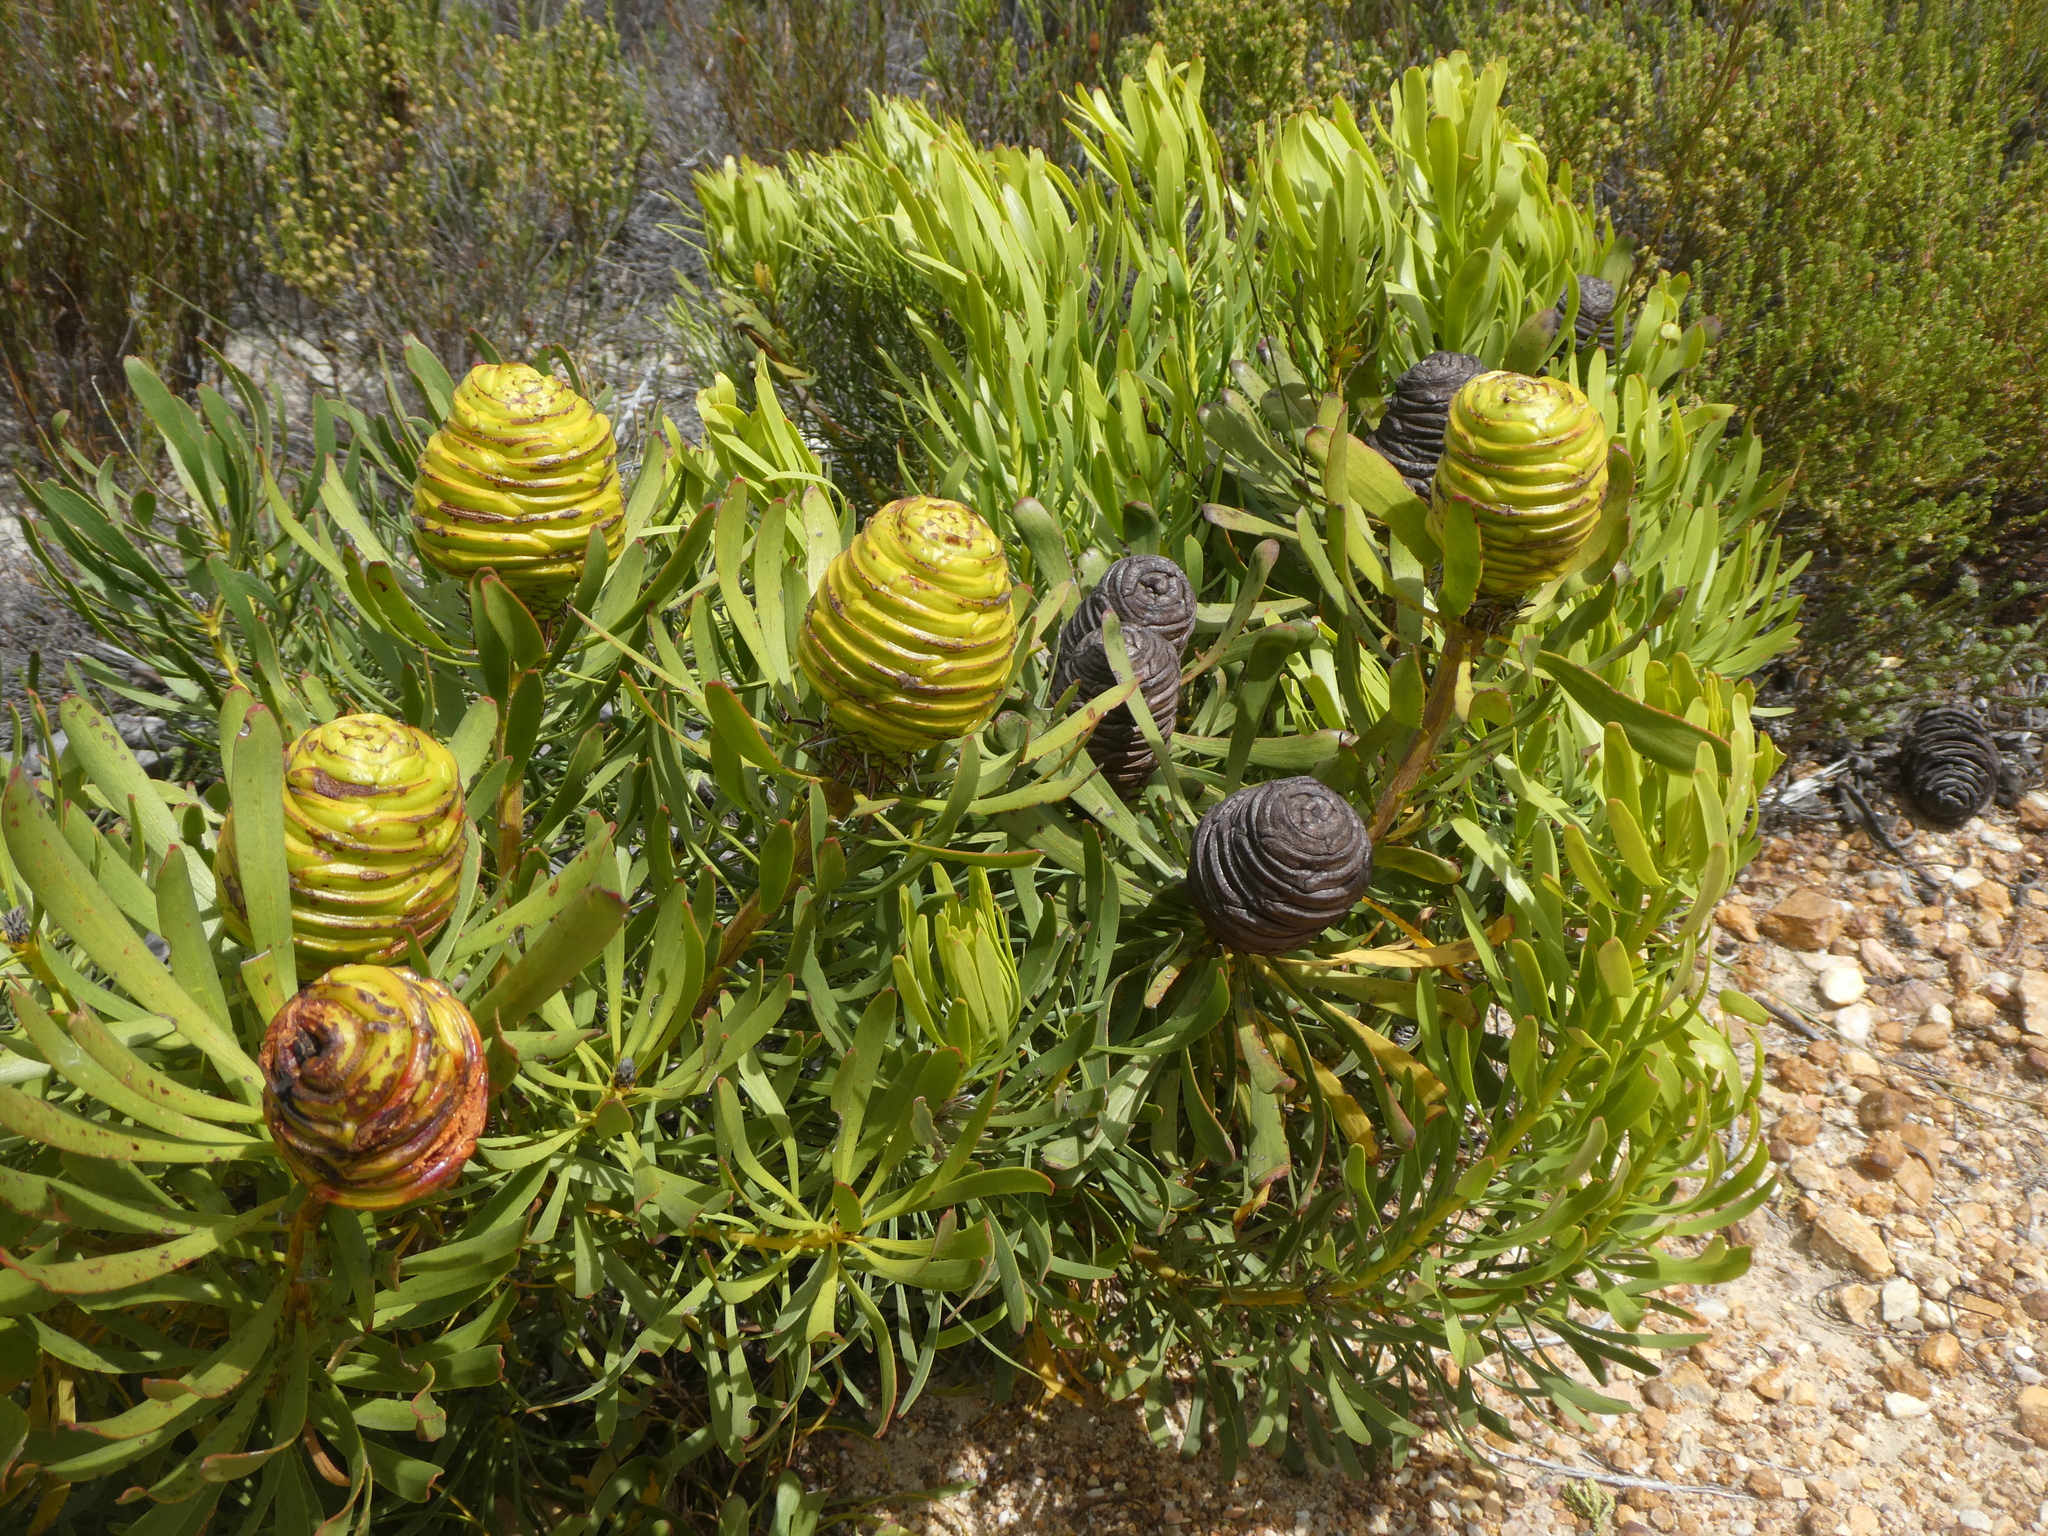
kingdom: Plantae
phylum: Tracheophyta
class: Magnoliopsida
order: Proteales
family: Proteaceae
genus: Leucadendron
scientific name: Leucadendron platyspermum
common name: Plate-seed conebush
